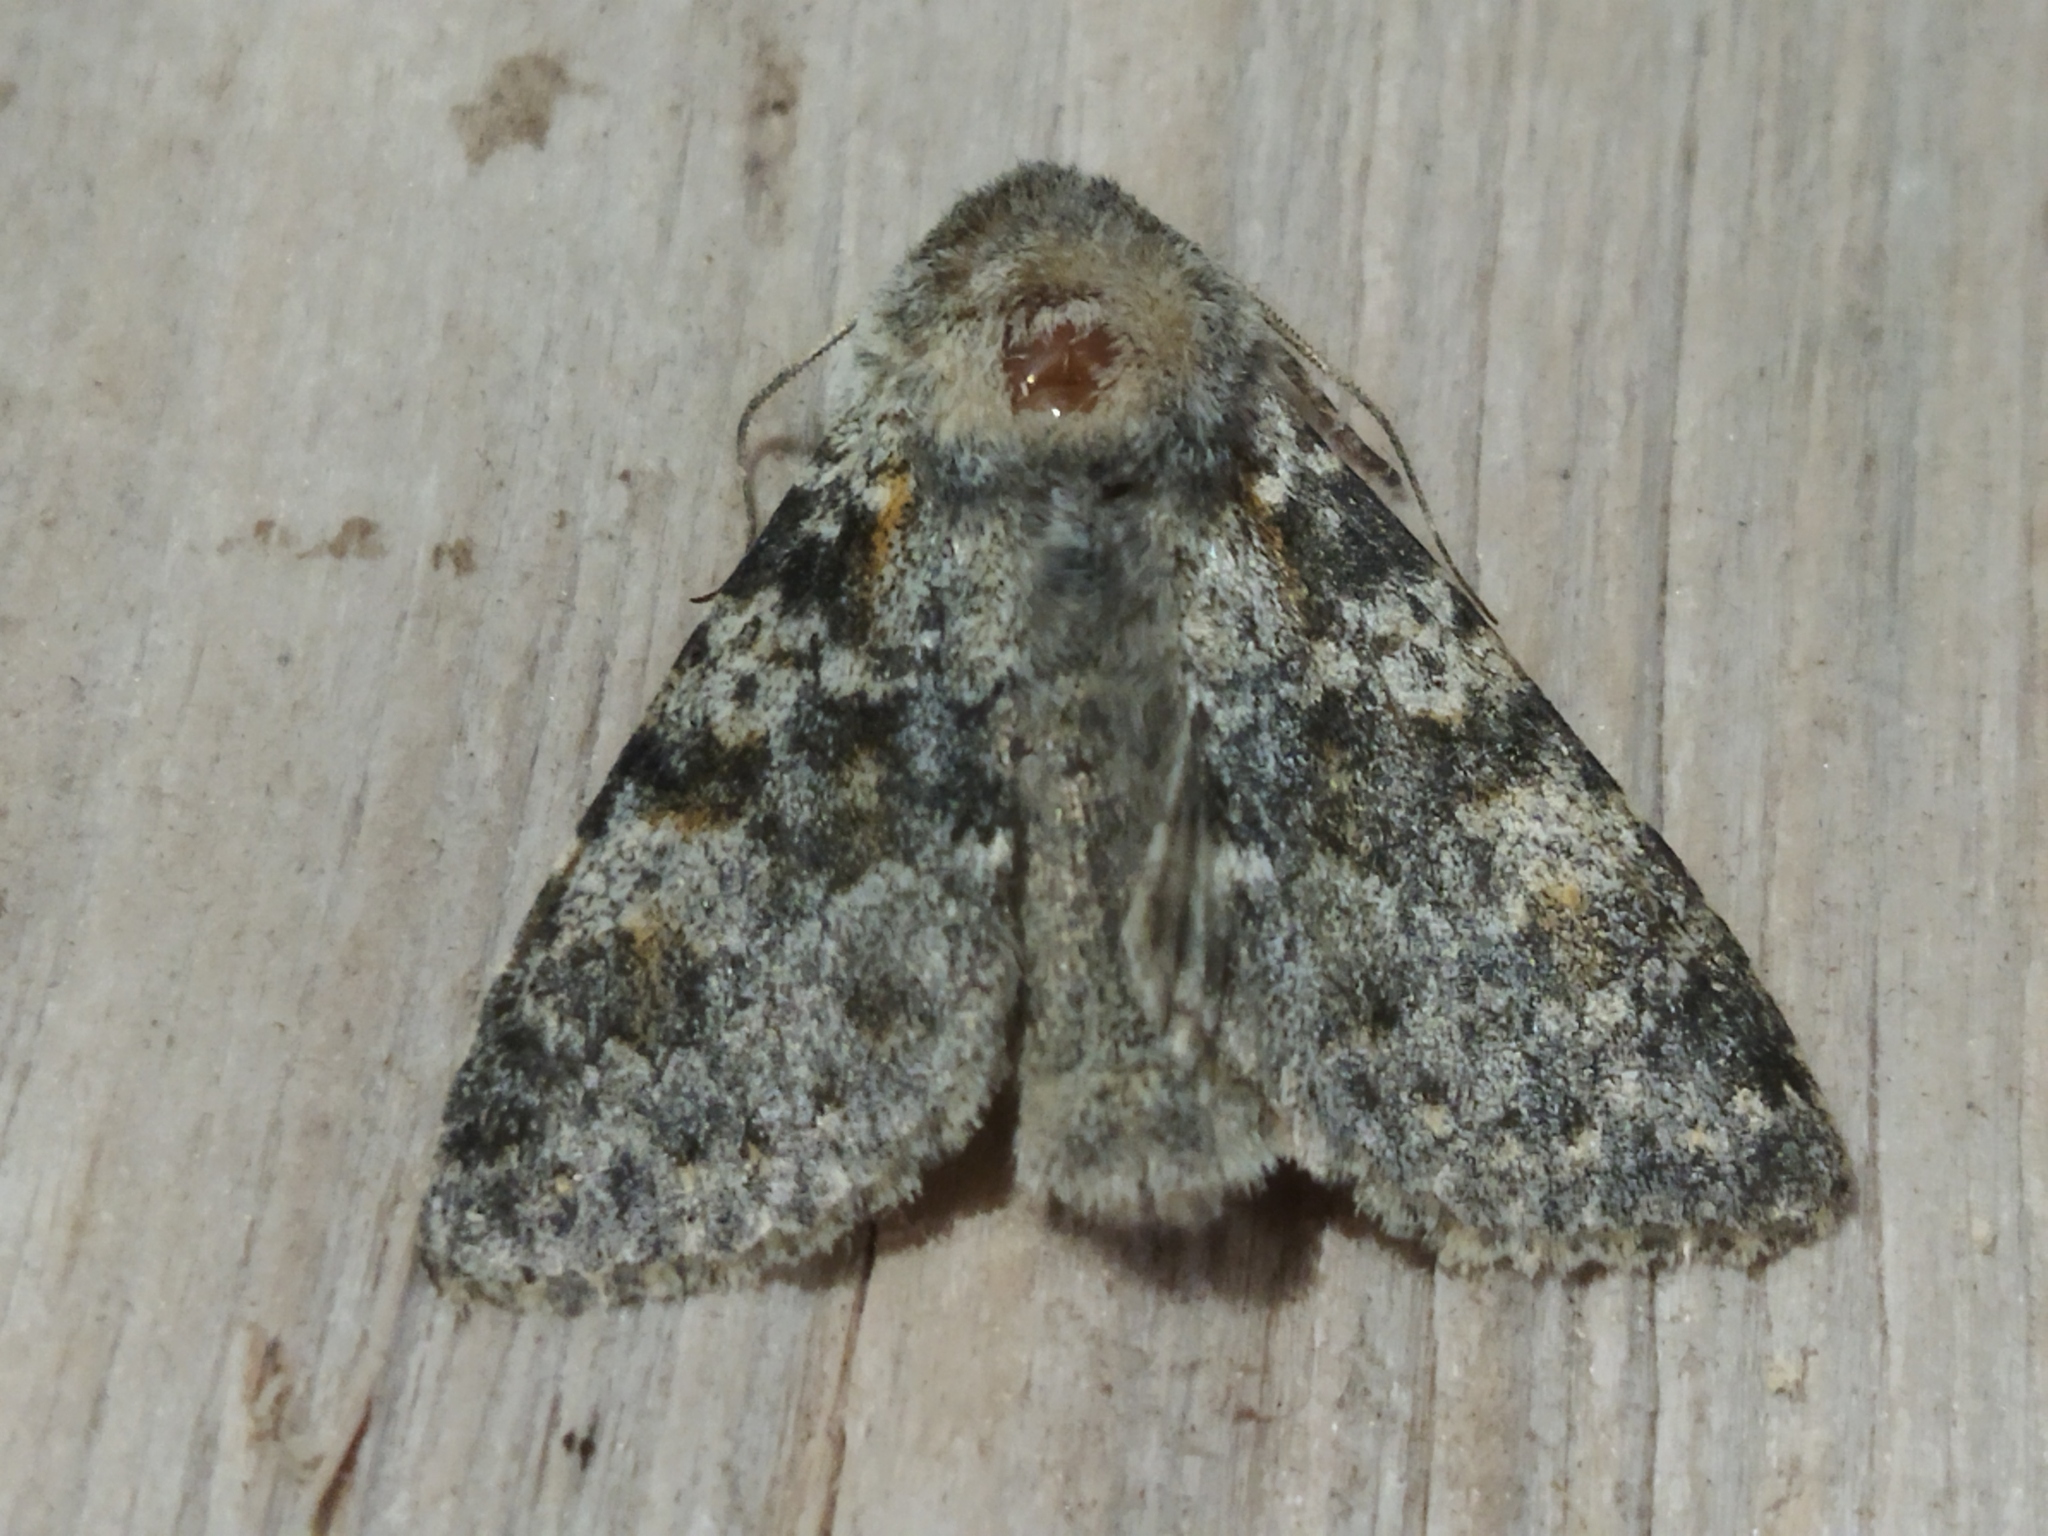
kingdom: Animalia
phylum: Arthropoda
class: Insecta
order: Lepidoptera
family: Noctuidae
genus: Polymixis
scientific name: Polymixis rufocincta
